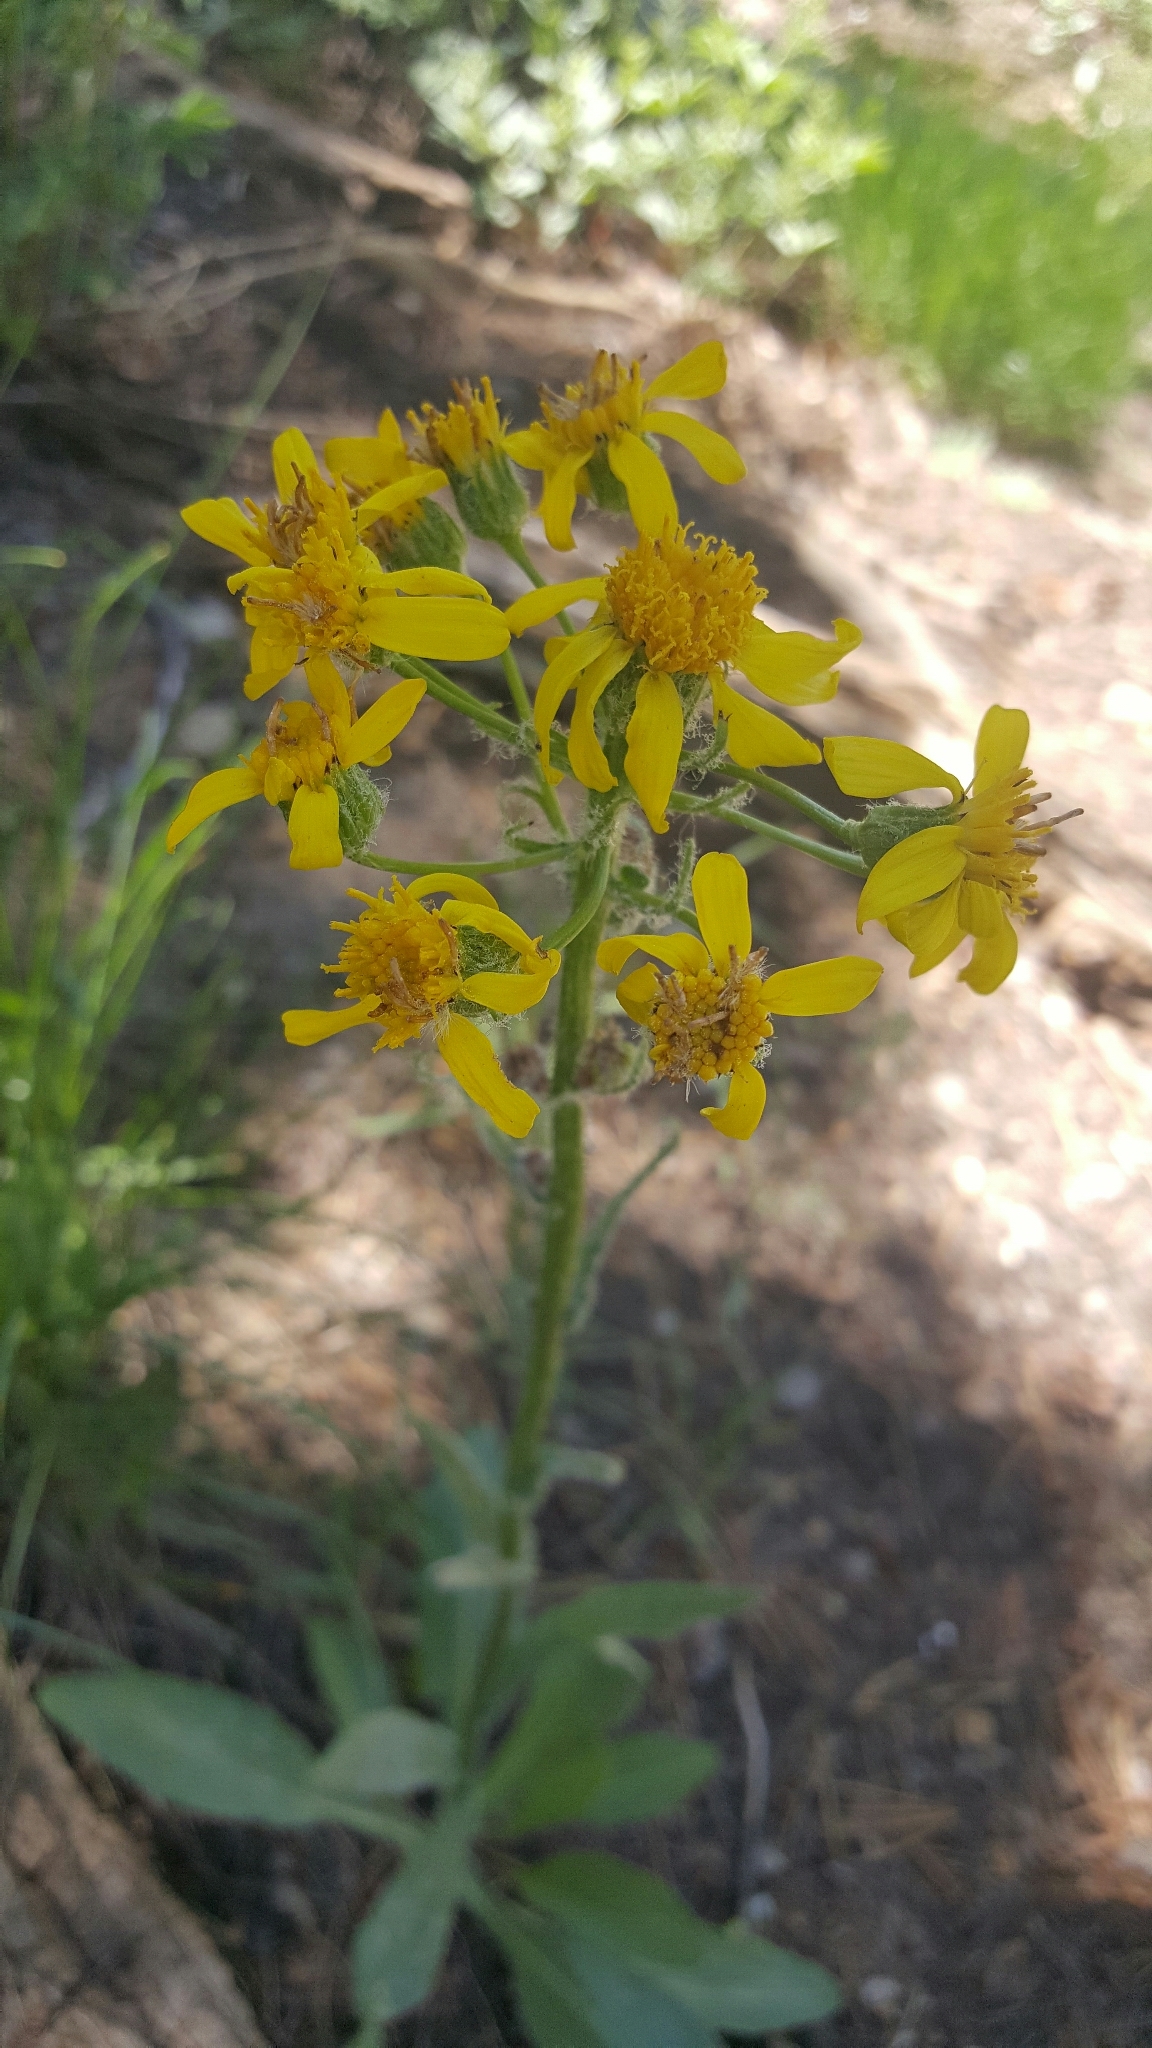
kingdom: Plantae
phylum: Tracheophyta
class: Magnoliopsida
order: Asterales
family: Asteraceae
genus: Senecio
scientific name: Senecio integerrimus
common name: Gaugeplant
